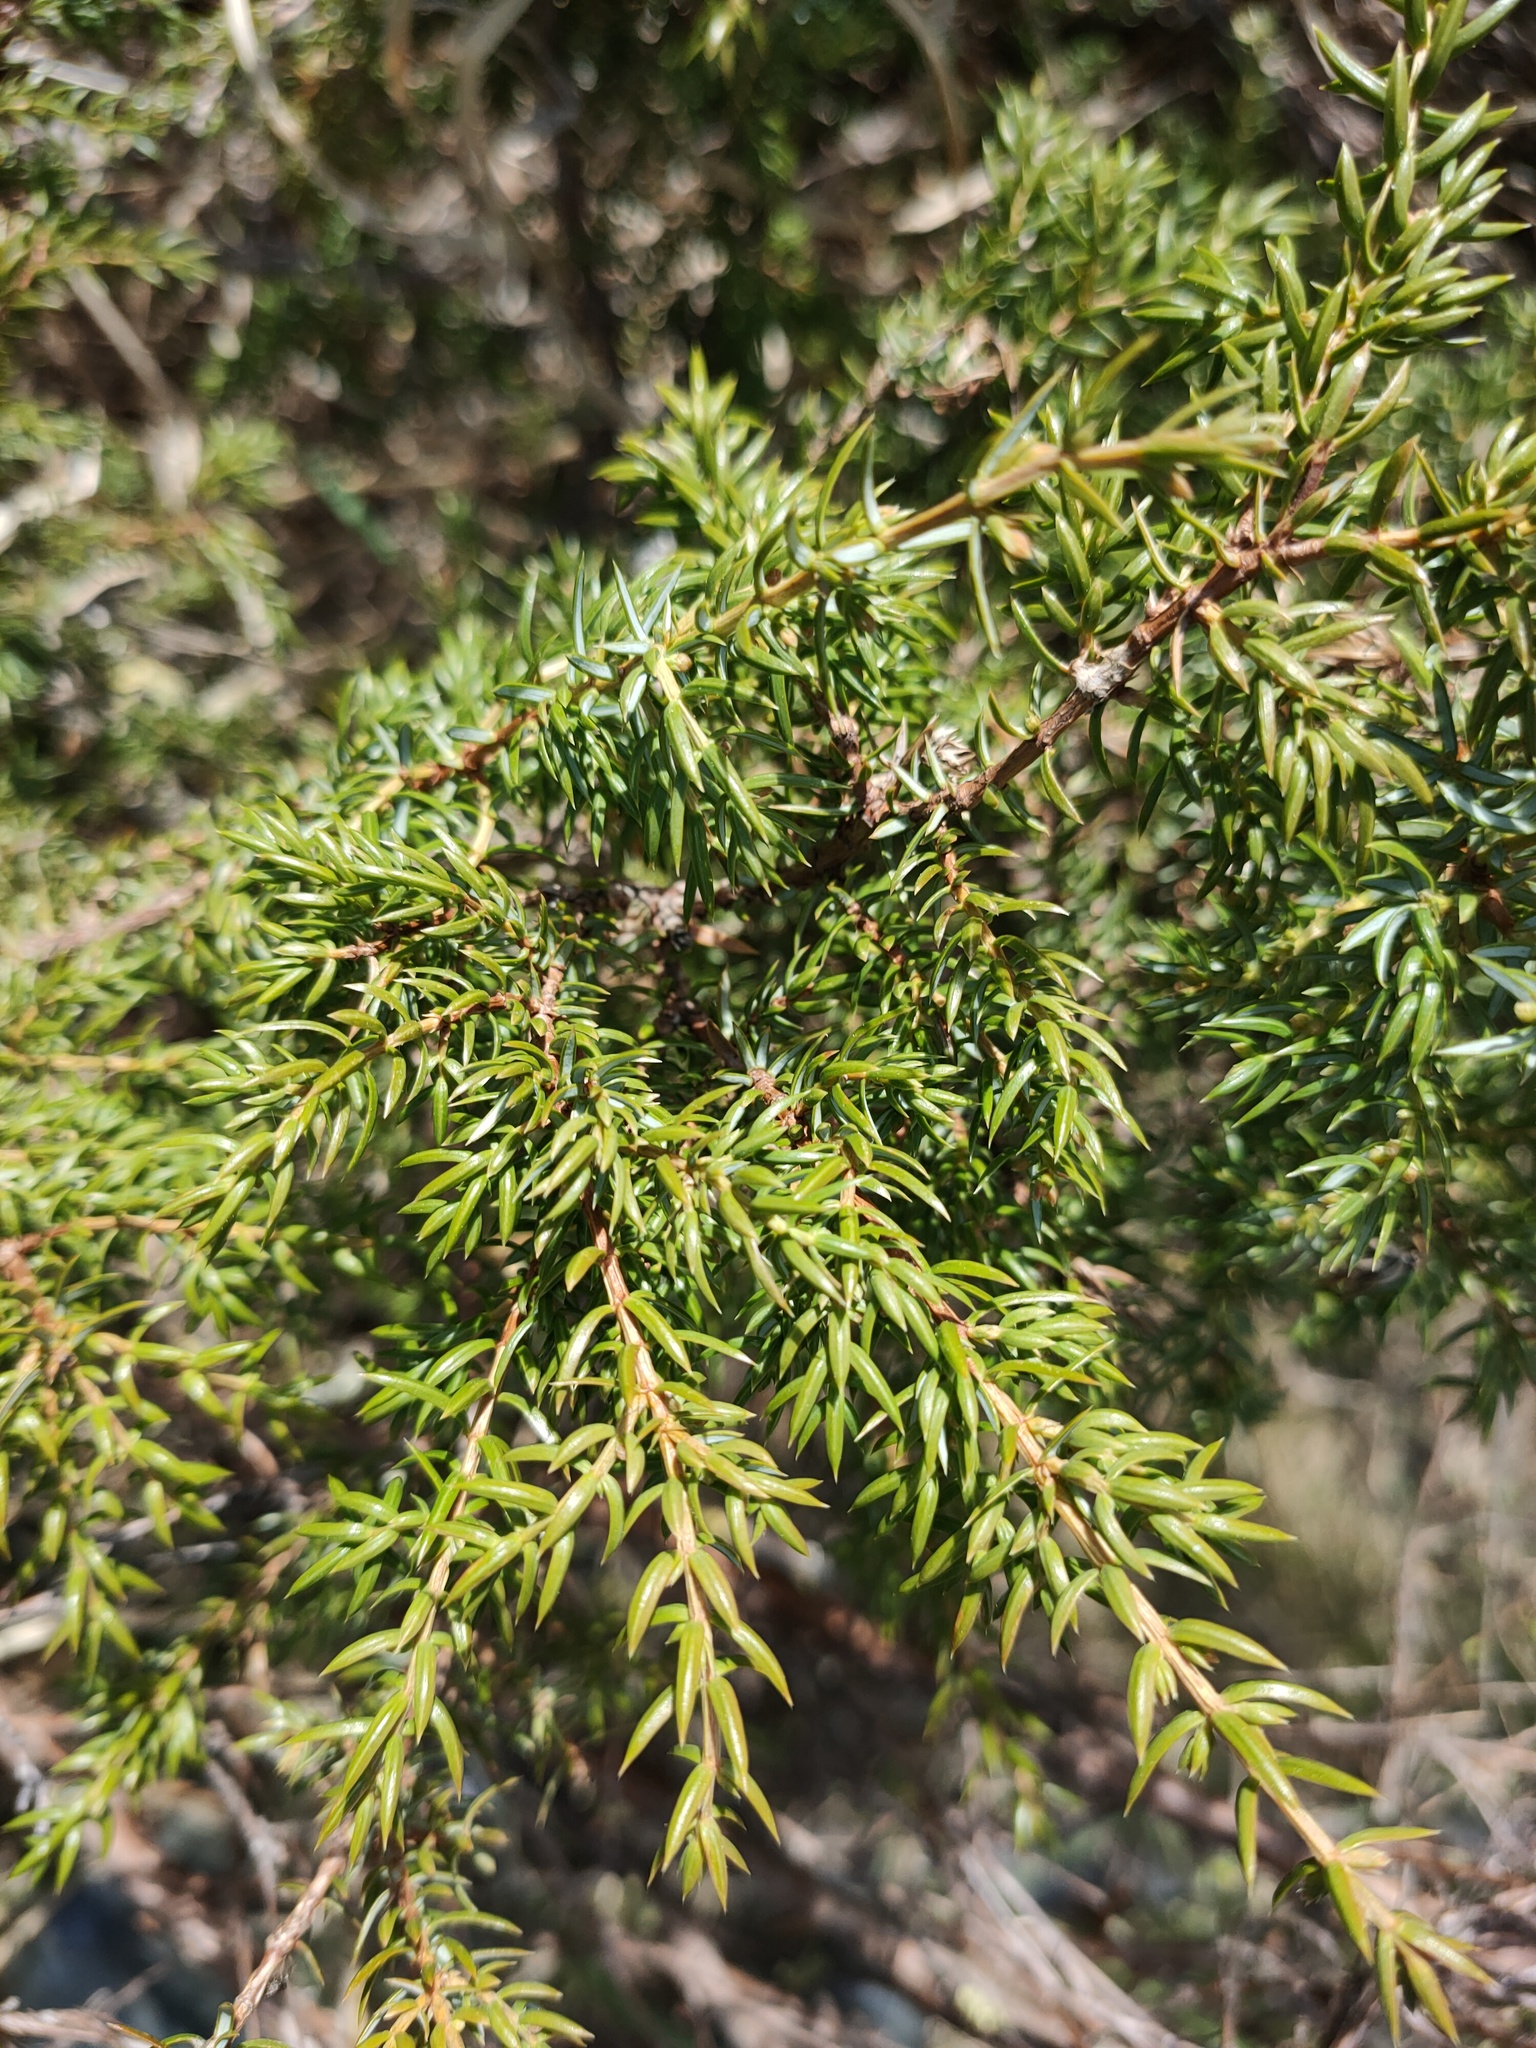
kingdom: Plantae
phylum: Tracheophyta
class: Pinopsida
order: Pinales
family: Cupressaceae
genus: Juniperus
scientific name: Juniperus communis
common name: Common juniper
